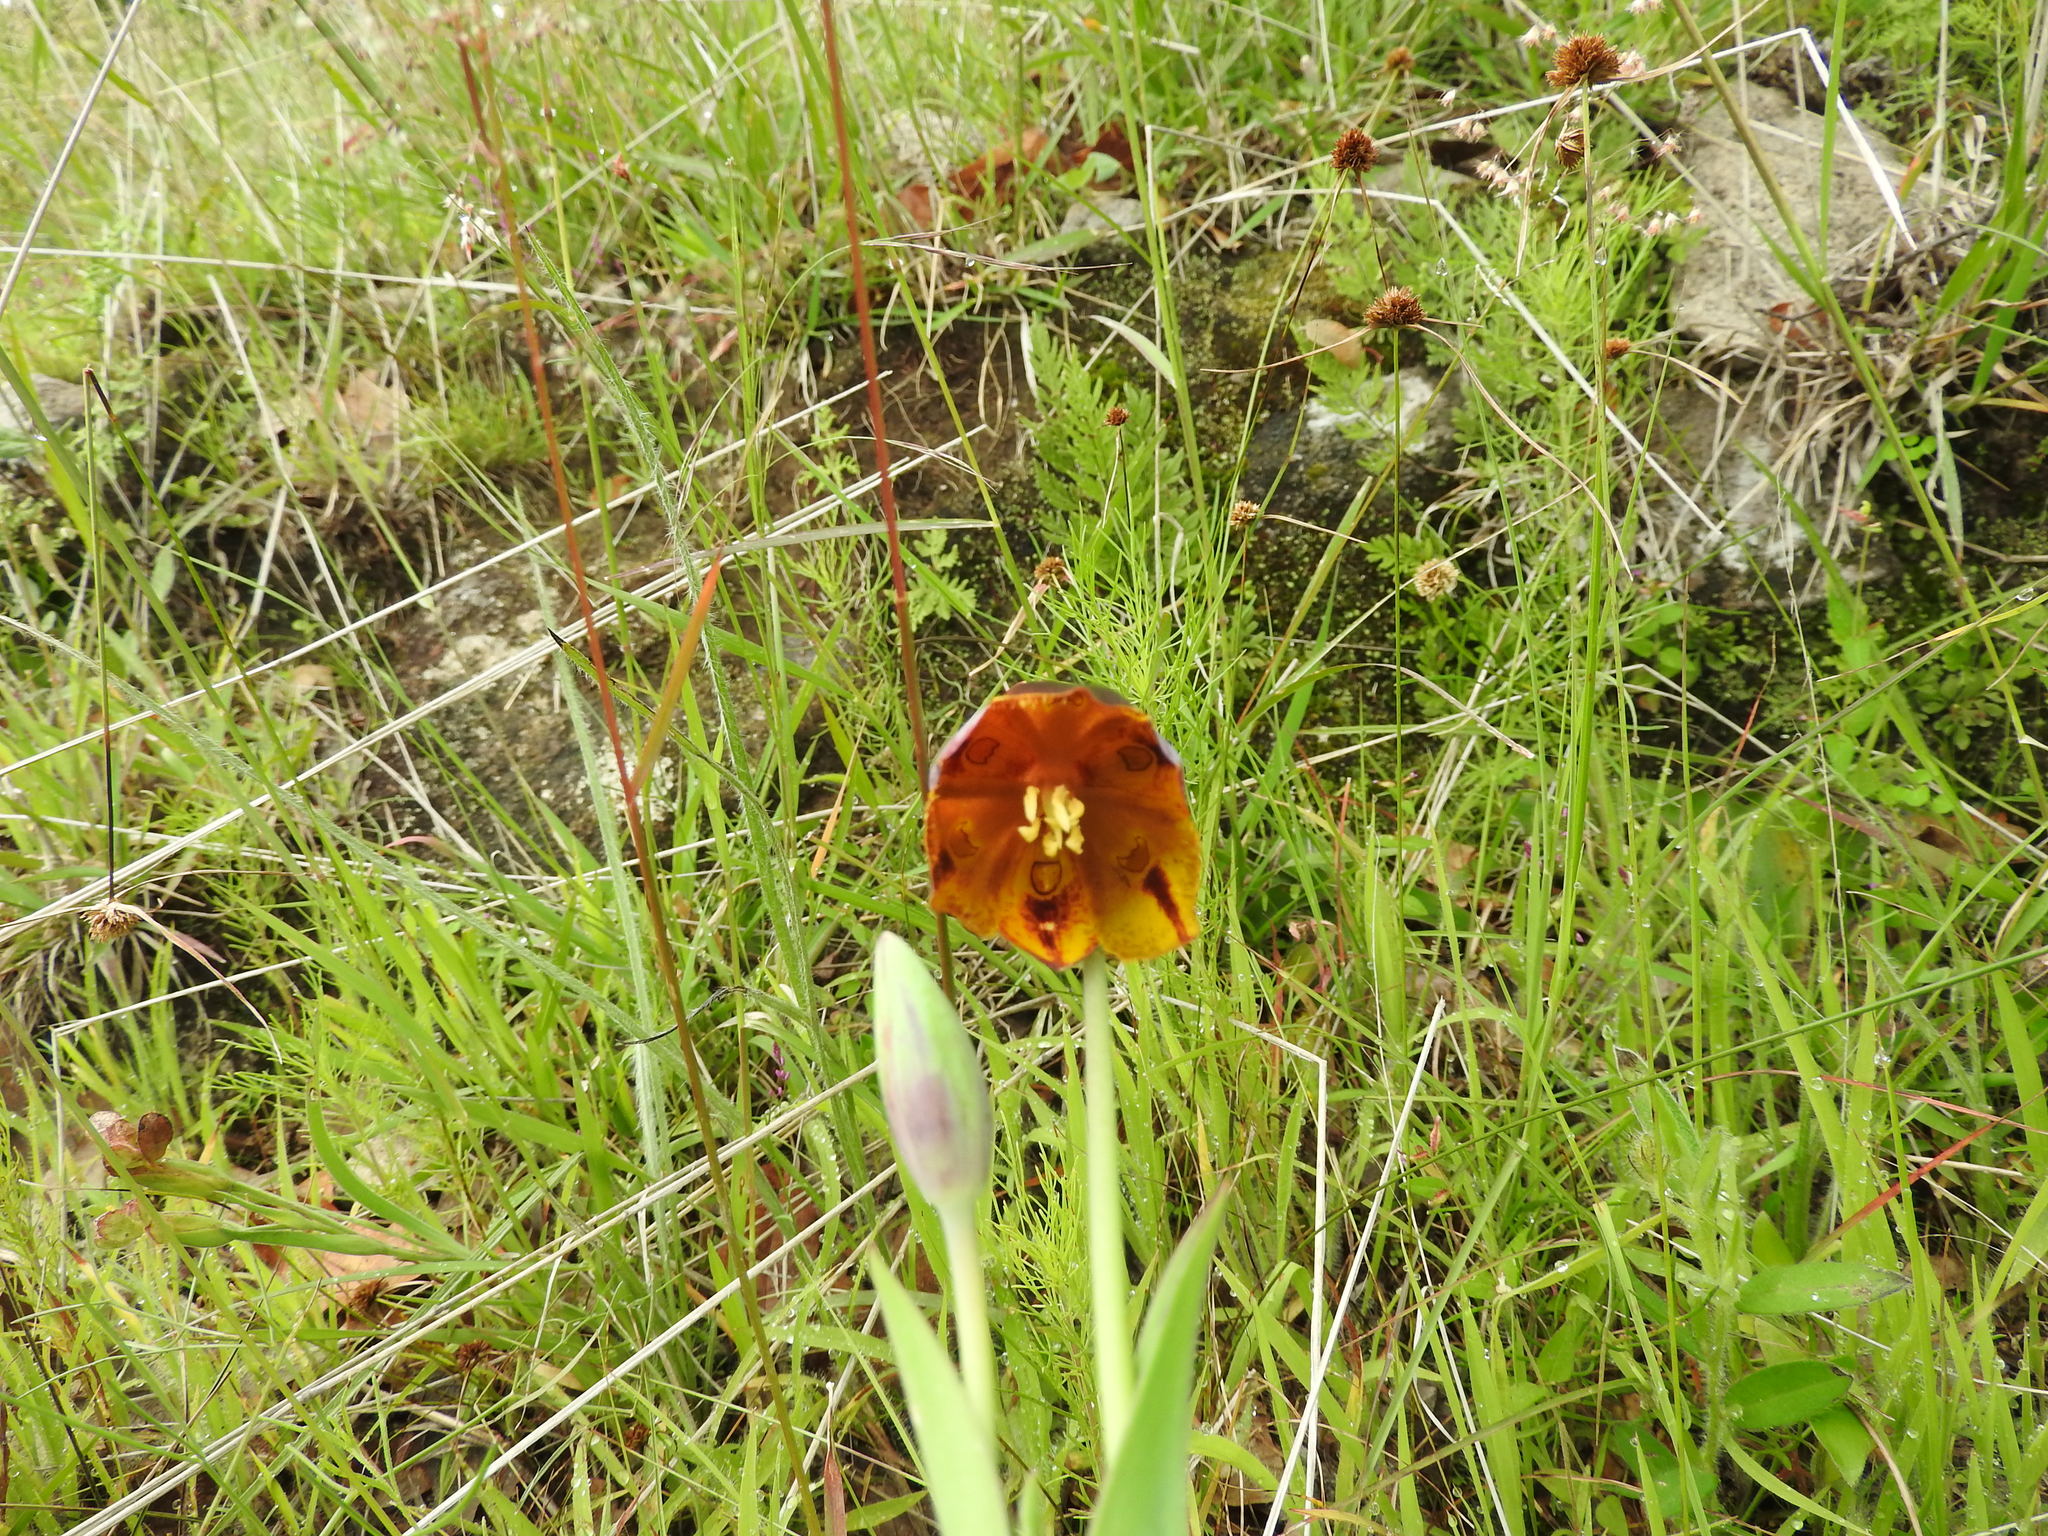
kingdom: Plantae
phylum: Tracheophyta
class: Liliopsida
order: Liliales
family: Liliaceae
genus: Calochortus
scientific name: Calochortus purpureus
